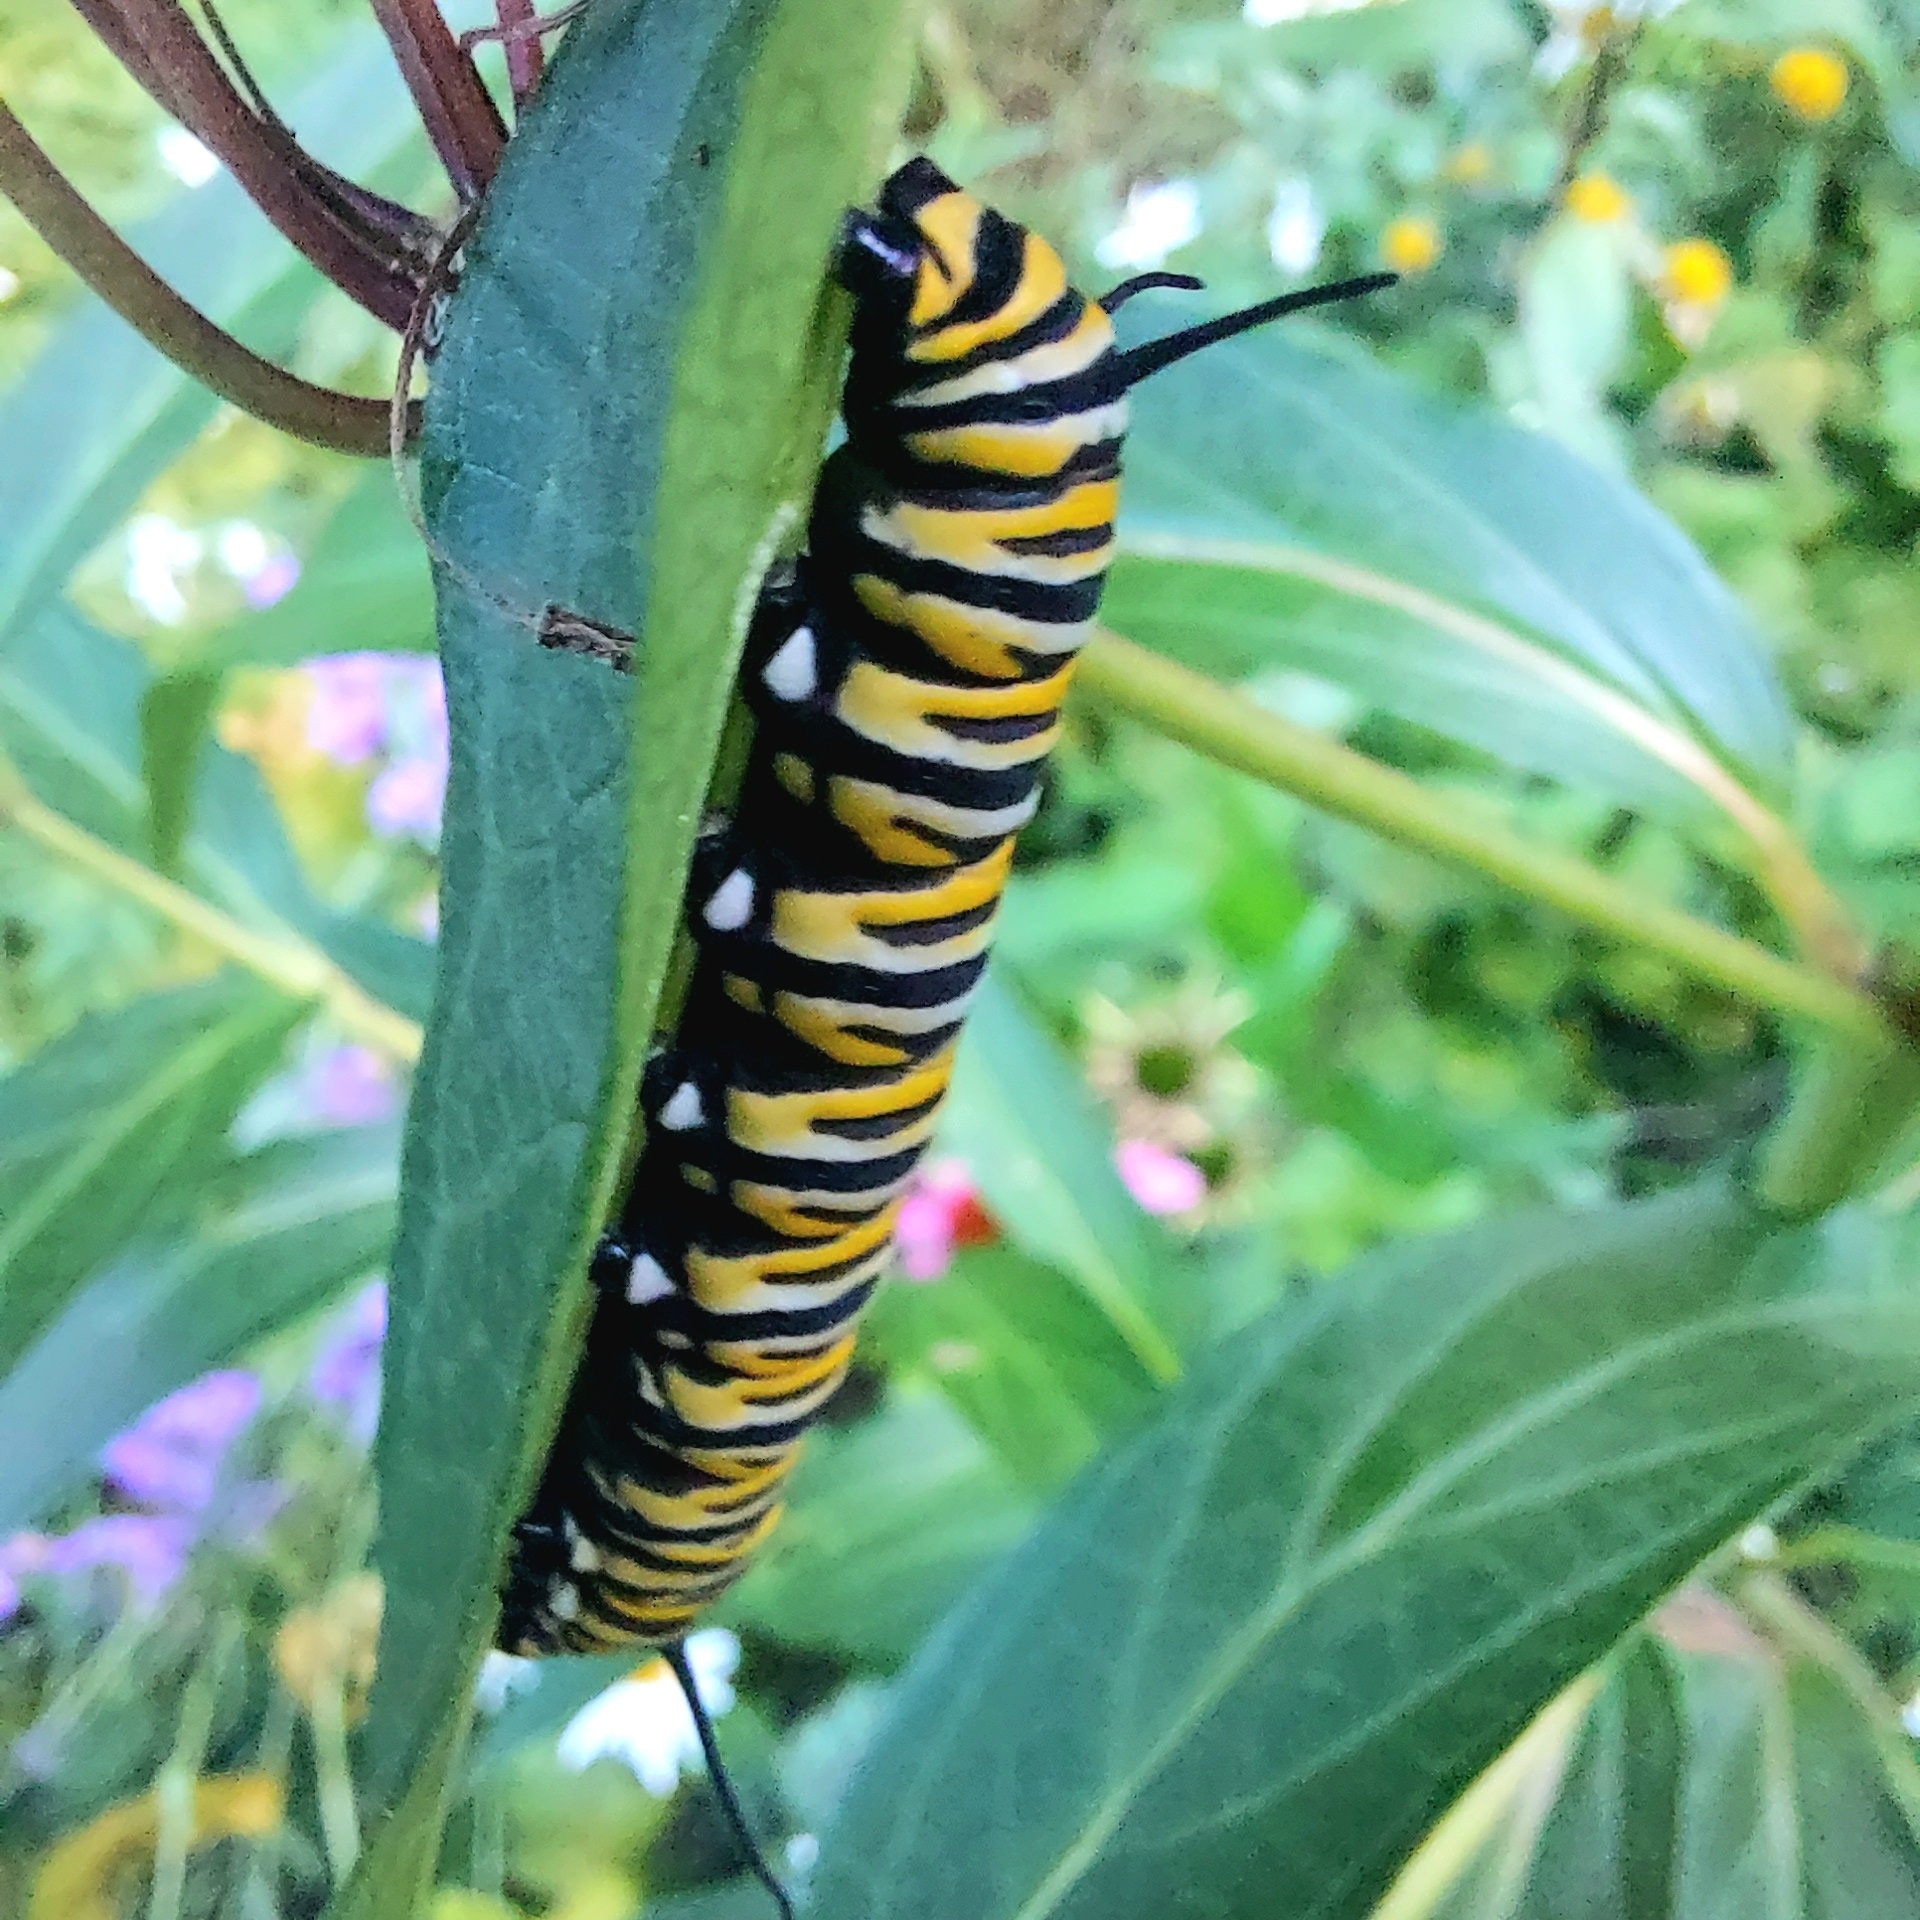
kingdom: Animalia
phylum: Arthropoda
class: Insecta
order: Lepidoptera
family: Nymphalidae
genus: Danaus
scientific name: Danaus plexippus
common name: Monarch
